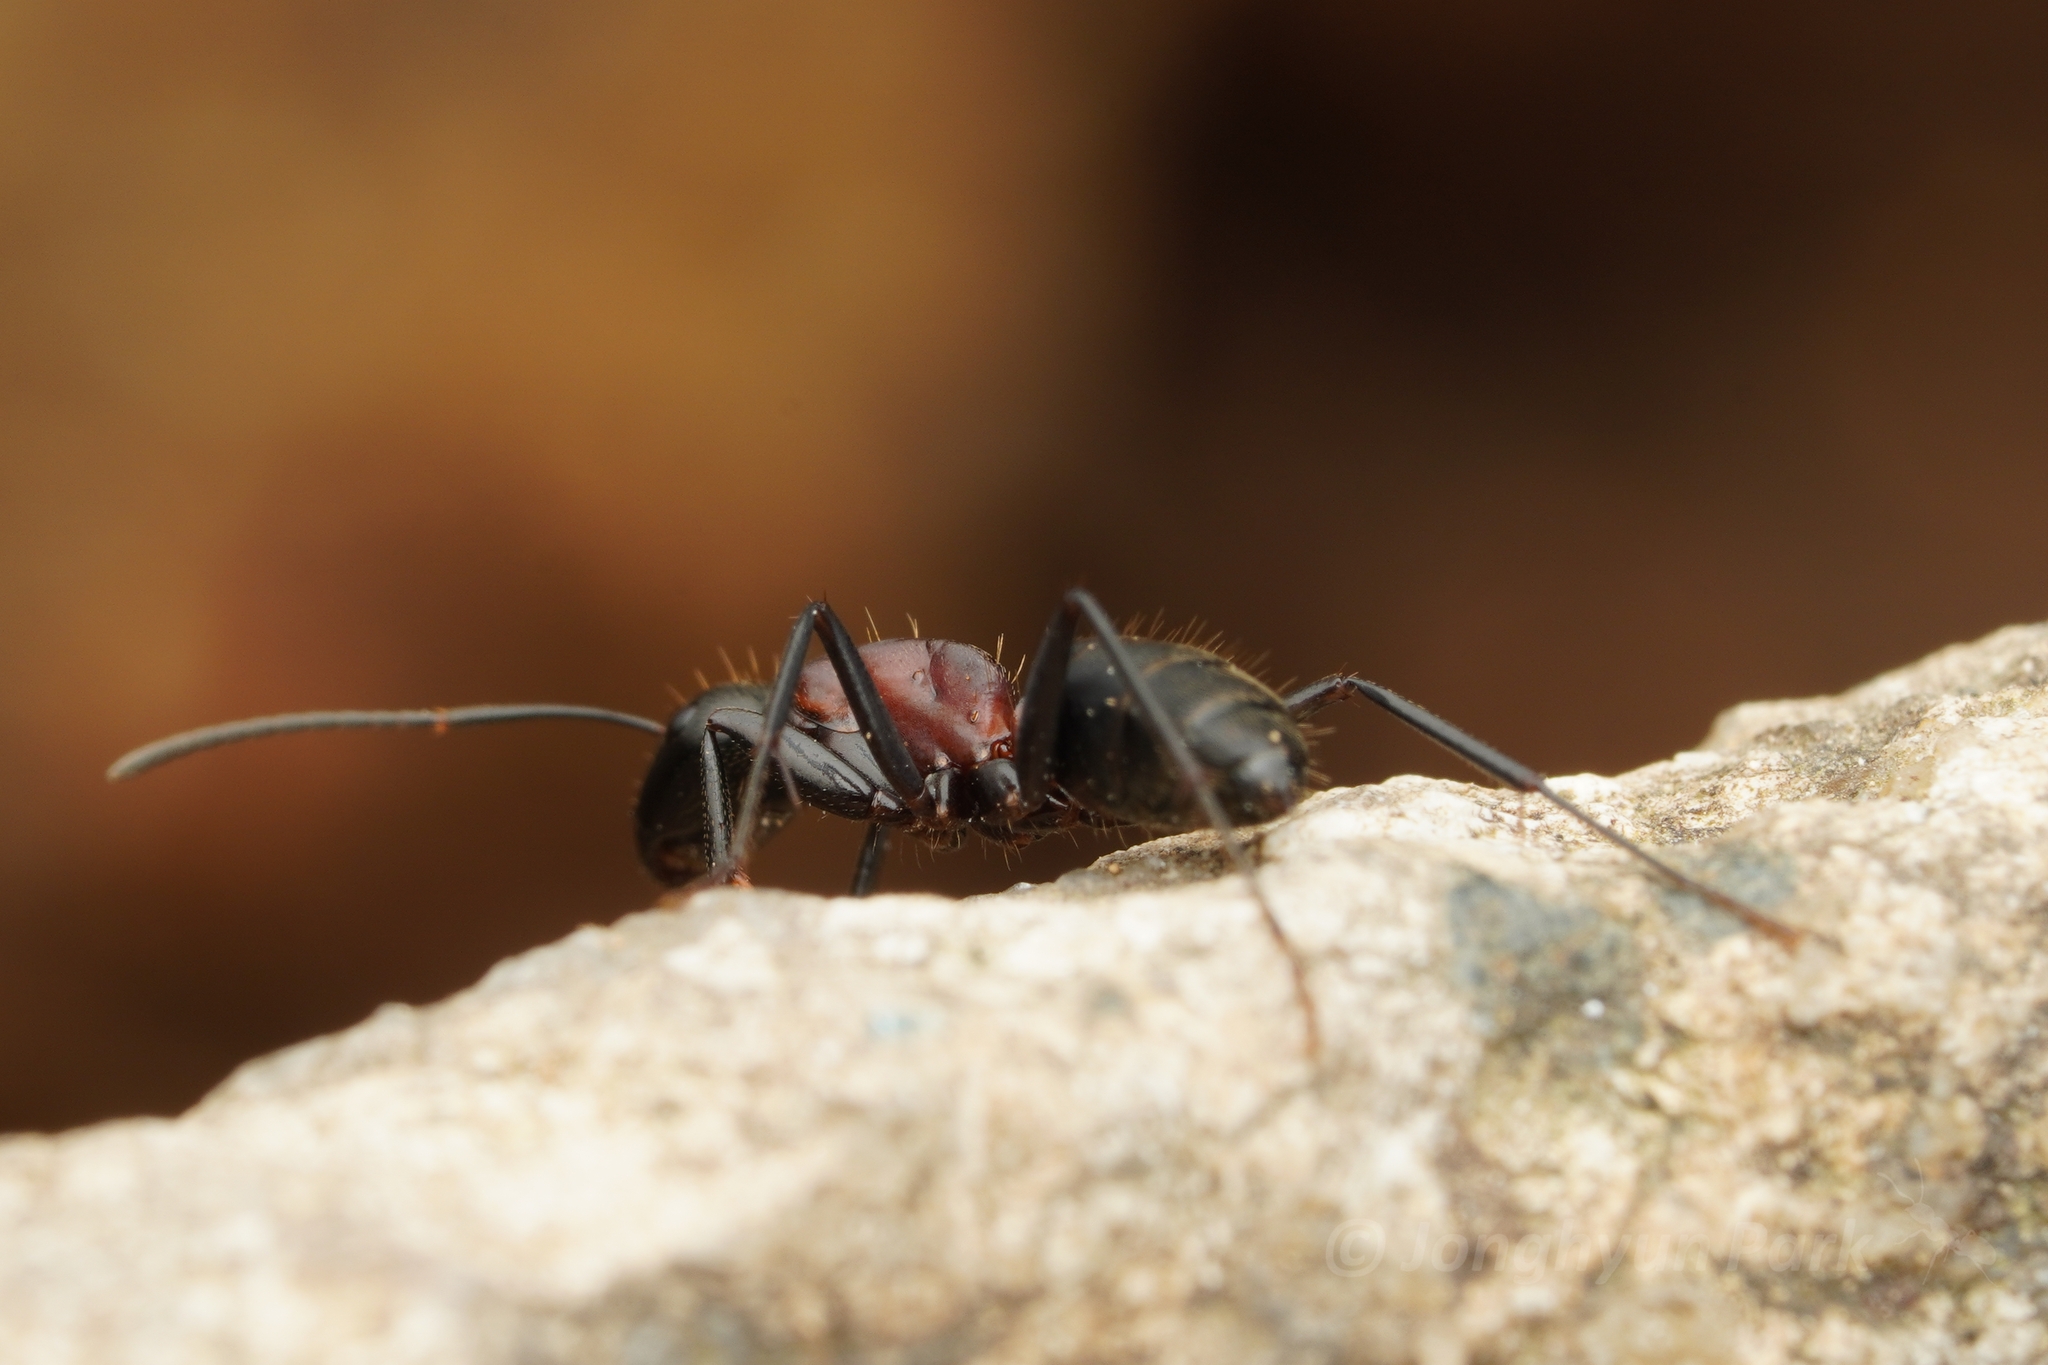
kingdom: Animalia
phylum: Arthropoda
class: Insecta
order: Hymenoptera
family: Formicidae
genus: Camponotus
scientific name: Camponotus atrox
